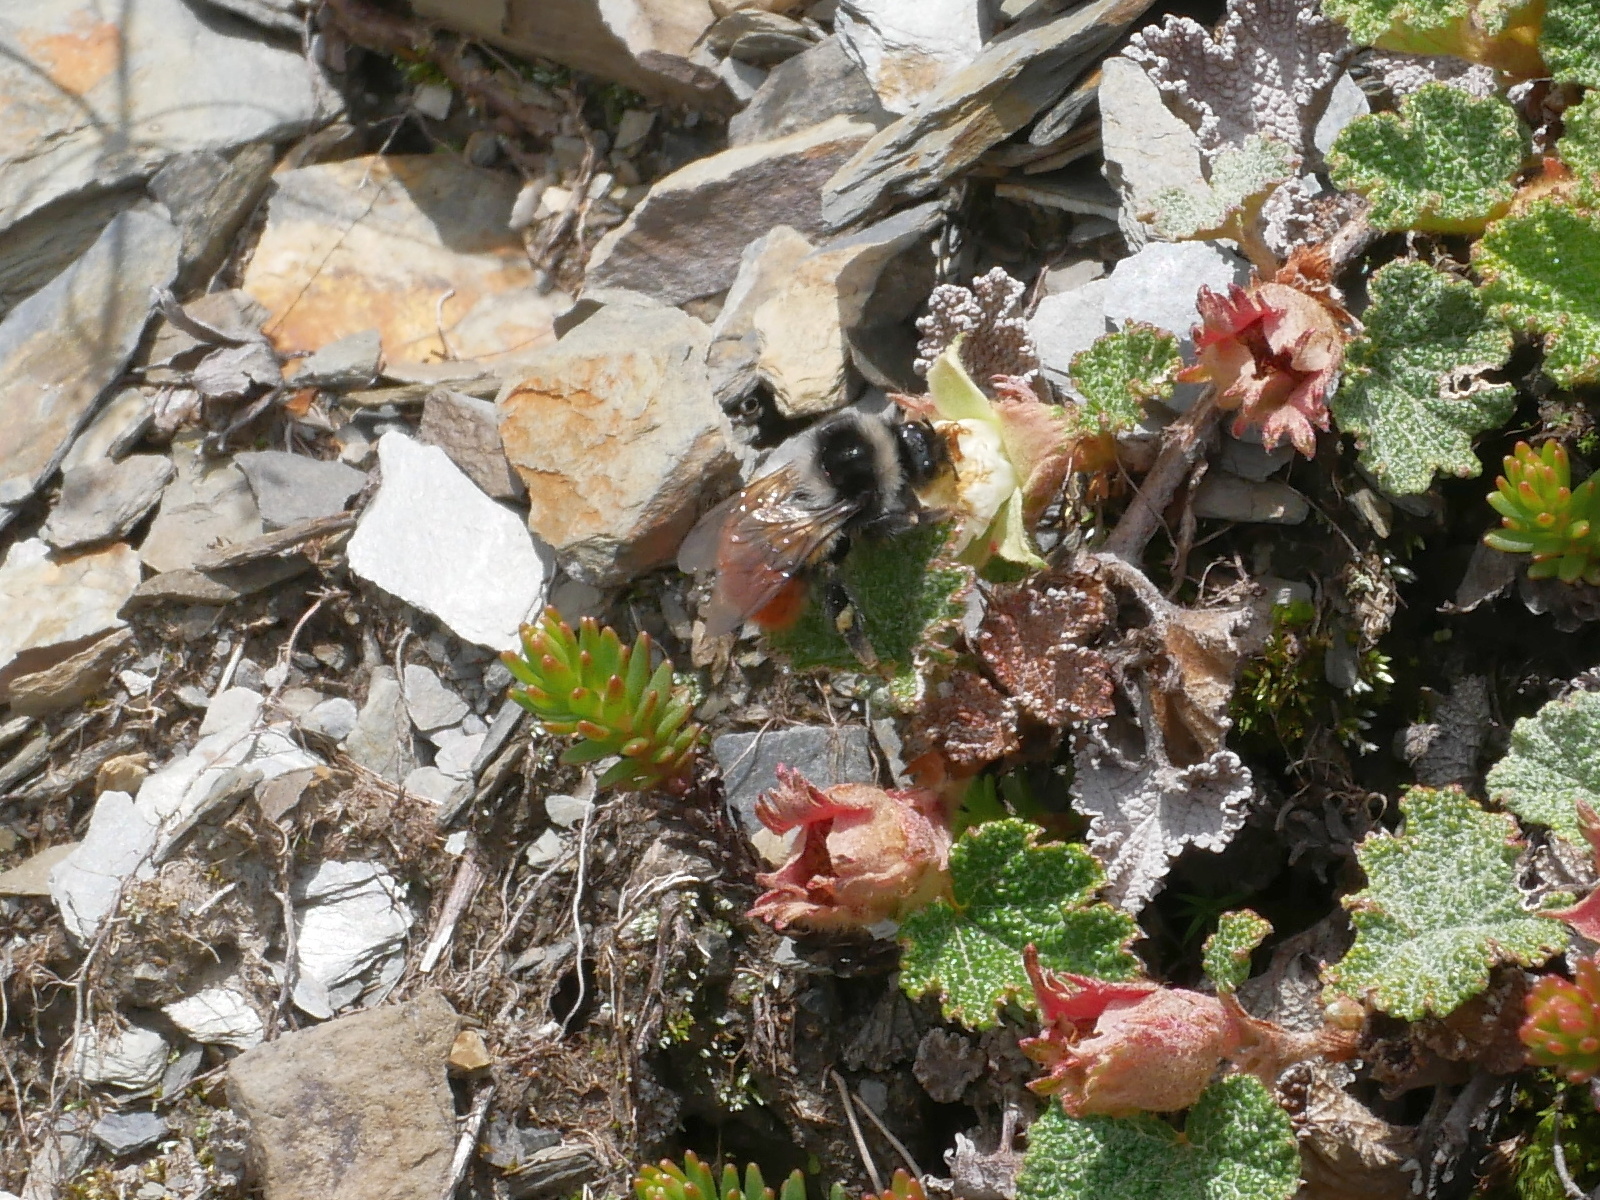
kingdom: Animalia
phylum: Arthropoda
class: Insecta
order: Hymenoptera
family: Apidae
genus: Bombus
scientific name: Bombus formosellus
